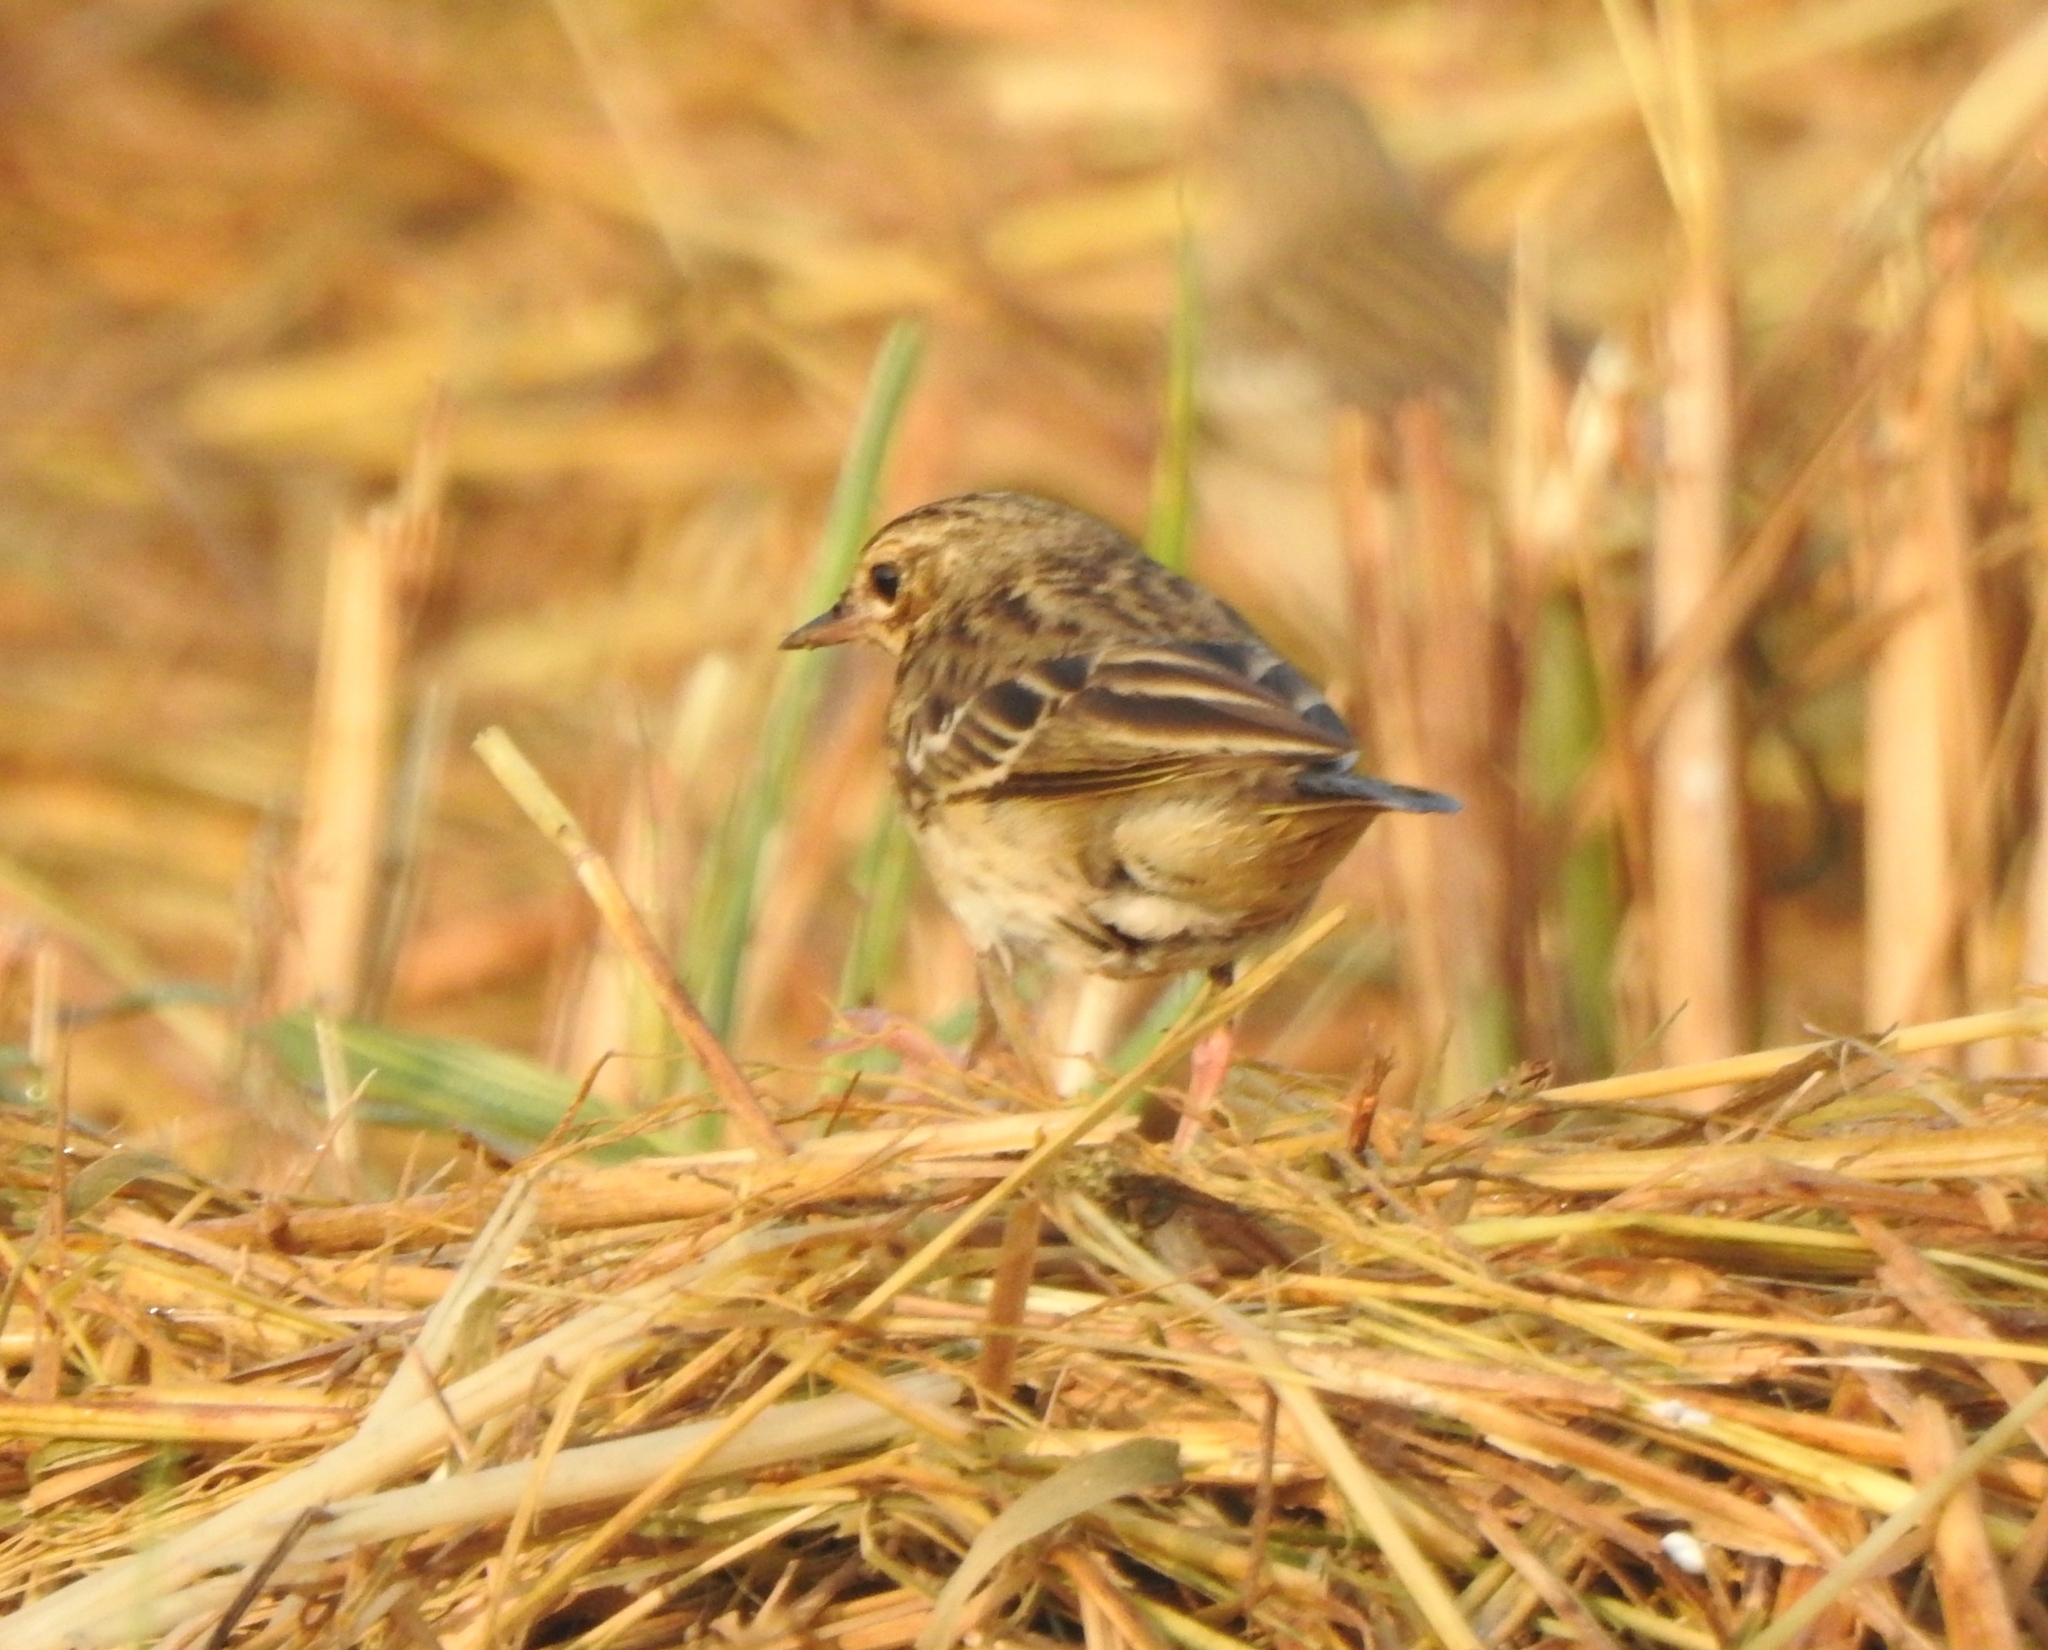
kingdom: Animalia
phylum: Chordata
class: Aves
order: Passeriformes
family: Motacillidae
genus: Anthus
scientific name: Anthus trivialis
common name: Tree pipit
